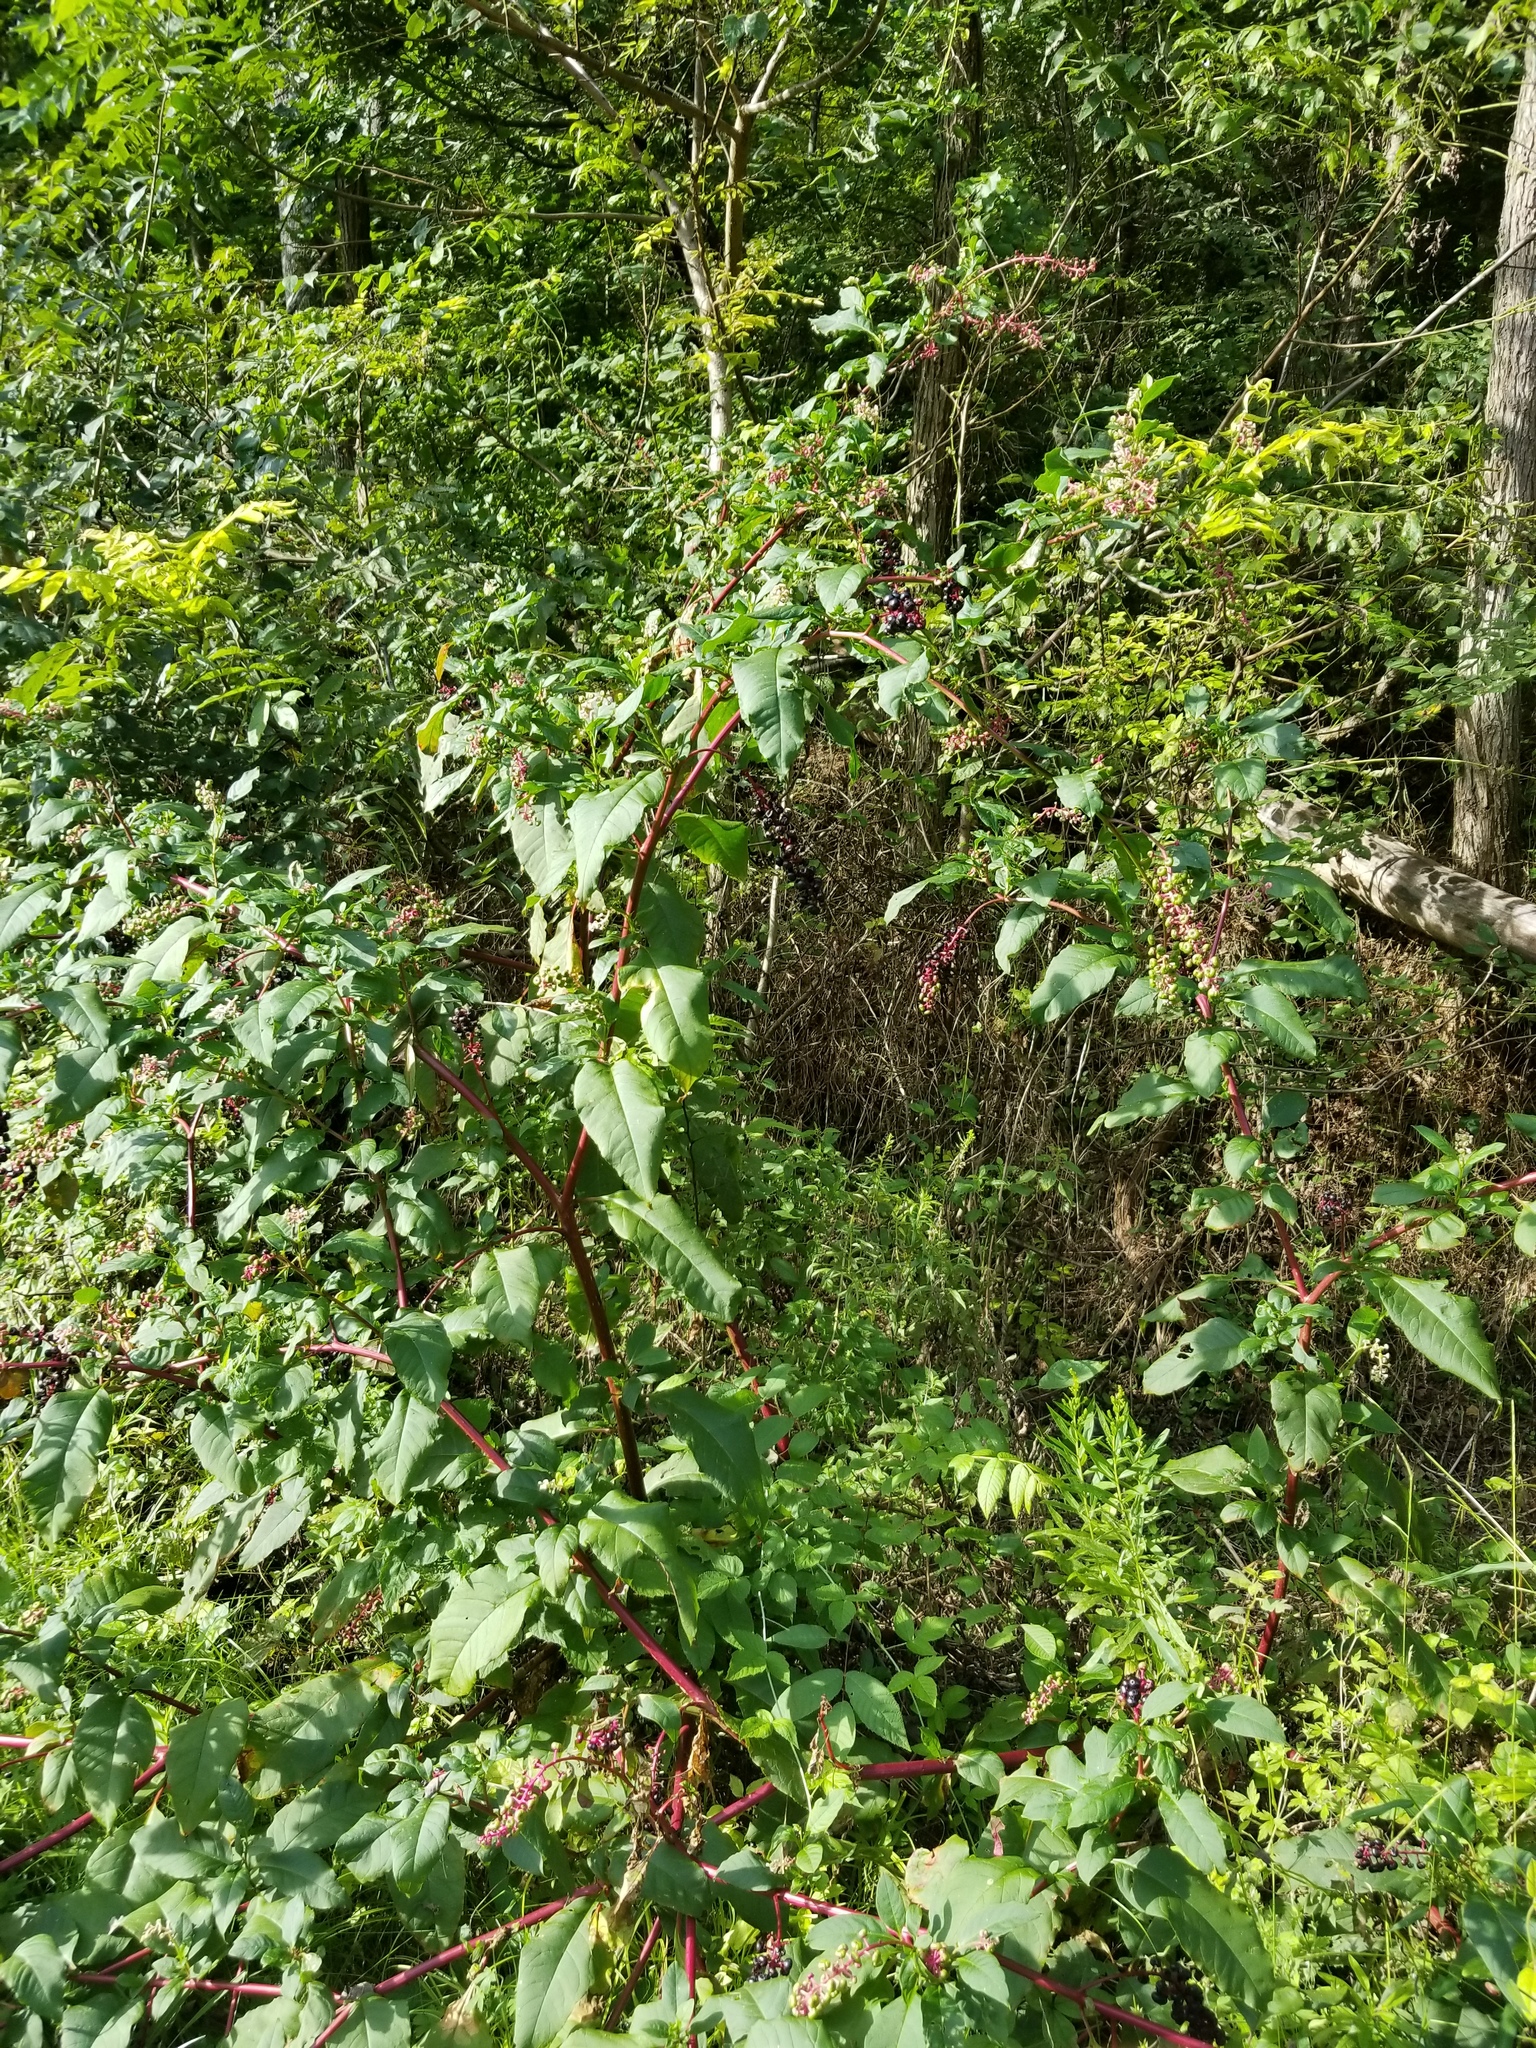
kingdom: Plantae
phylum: Tracheophyta
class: Magnoliopsida
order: Caryophyllales
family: Phytolaccaceae
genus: Phytolacca
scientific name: Phytolacca americana
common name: American pokeweed
